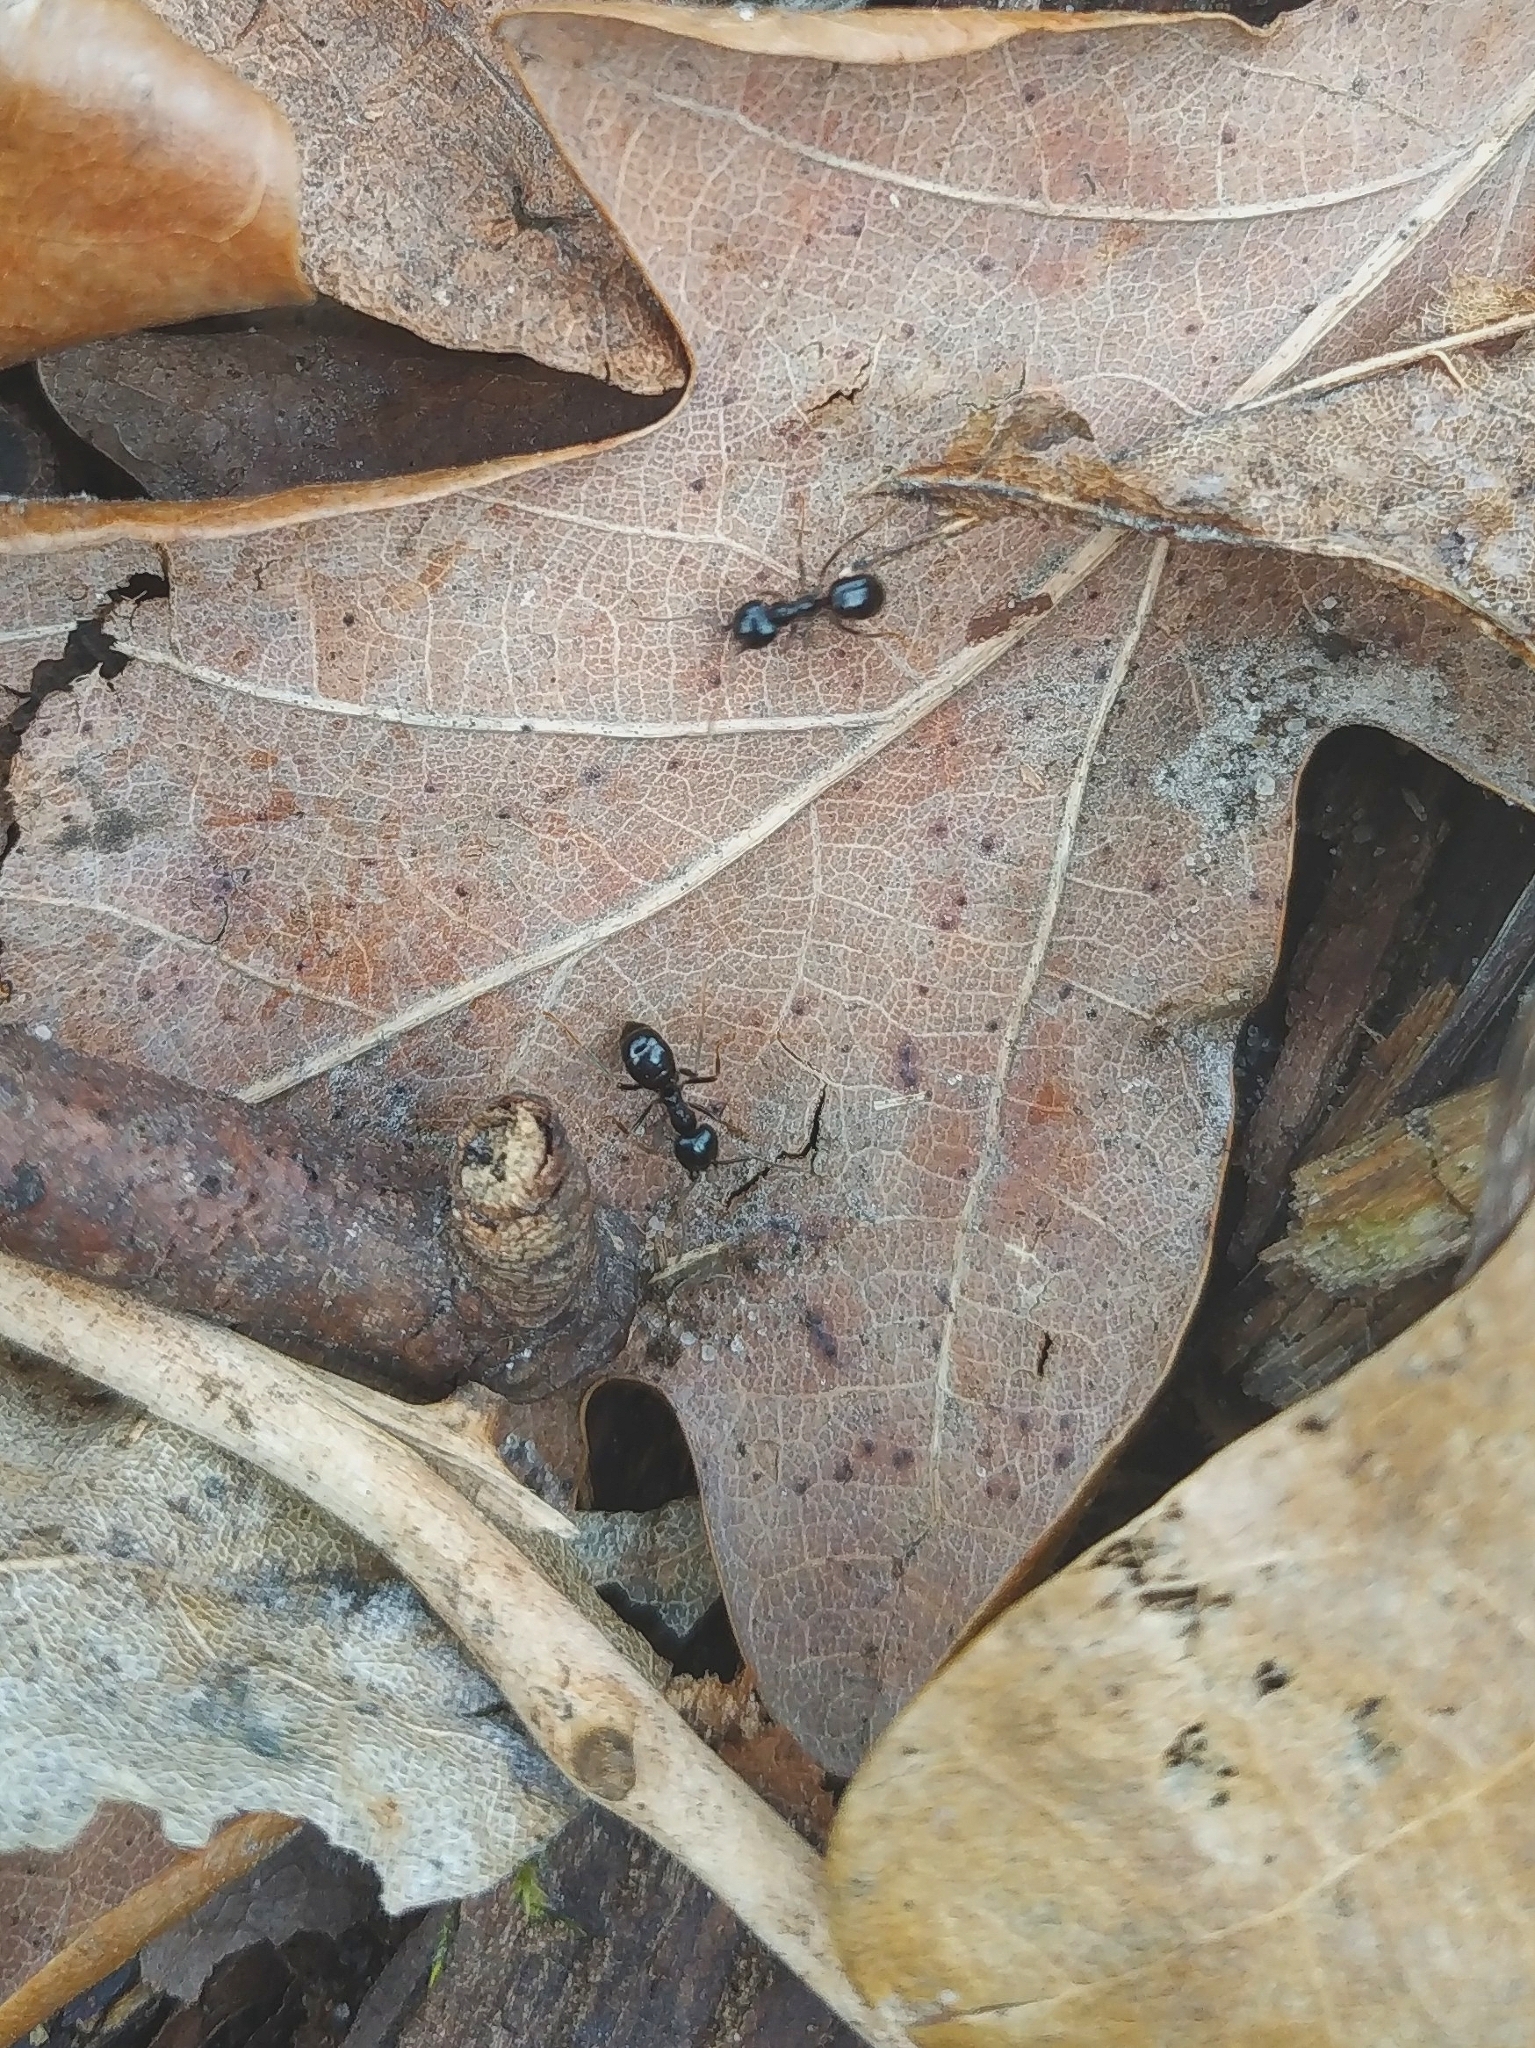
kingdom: Animalia
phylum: Arthropoda
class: Insecta
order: Hymenoptera
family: Formicidae
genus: Lasius
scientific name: Lasius fuliginosus
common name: Jet ant
